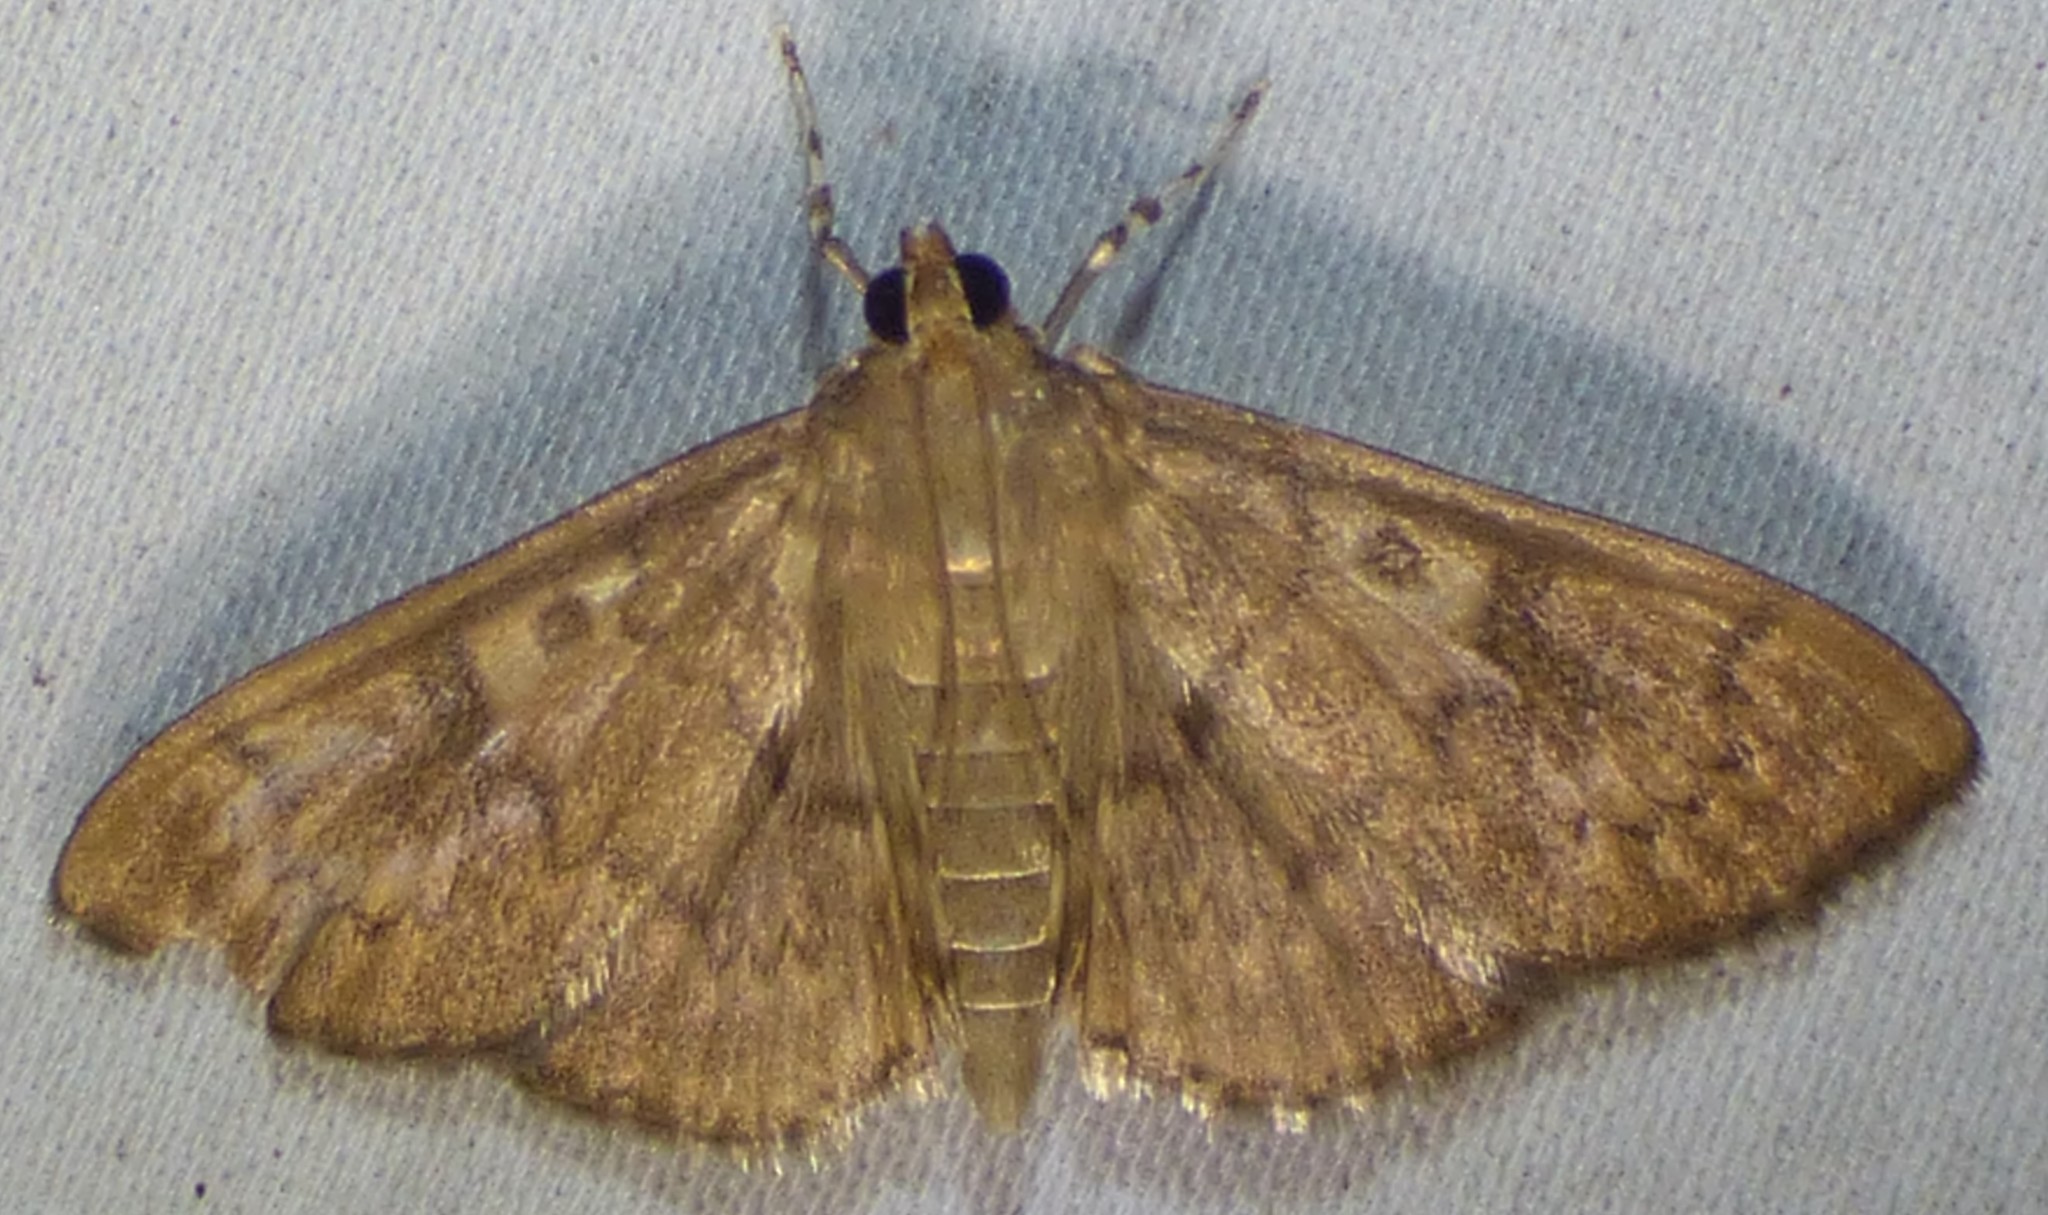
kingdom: Animalia
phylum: Arthropoda
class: Insecta
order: Lepidoptera
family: Crambidae
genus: Syllepte
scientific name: Syllepte obscuralis
